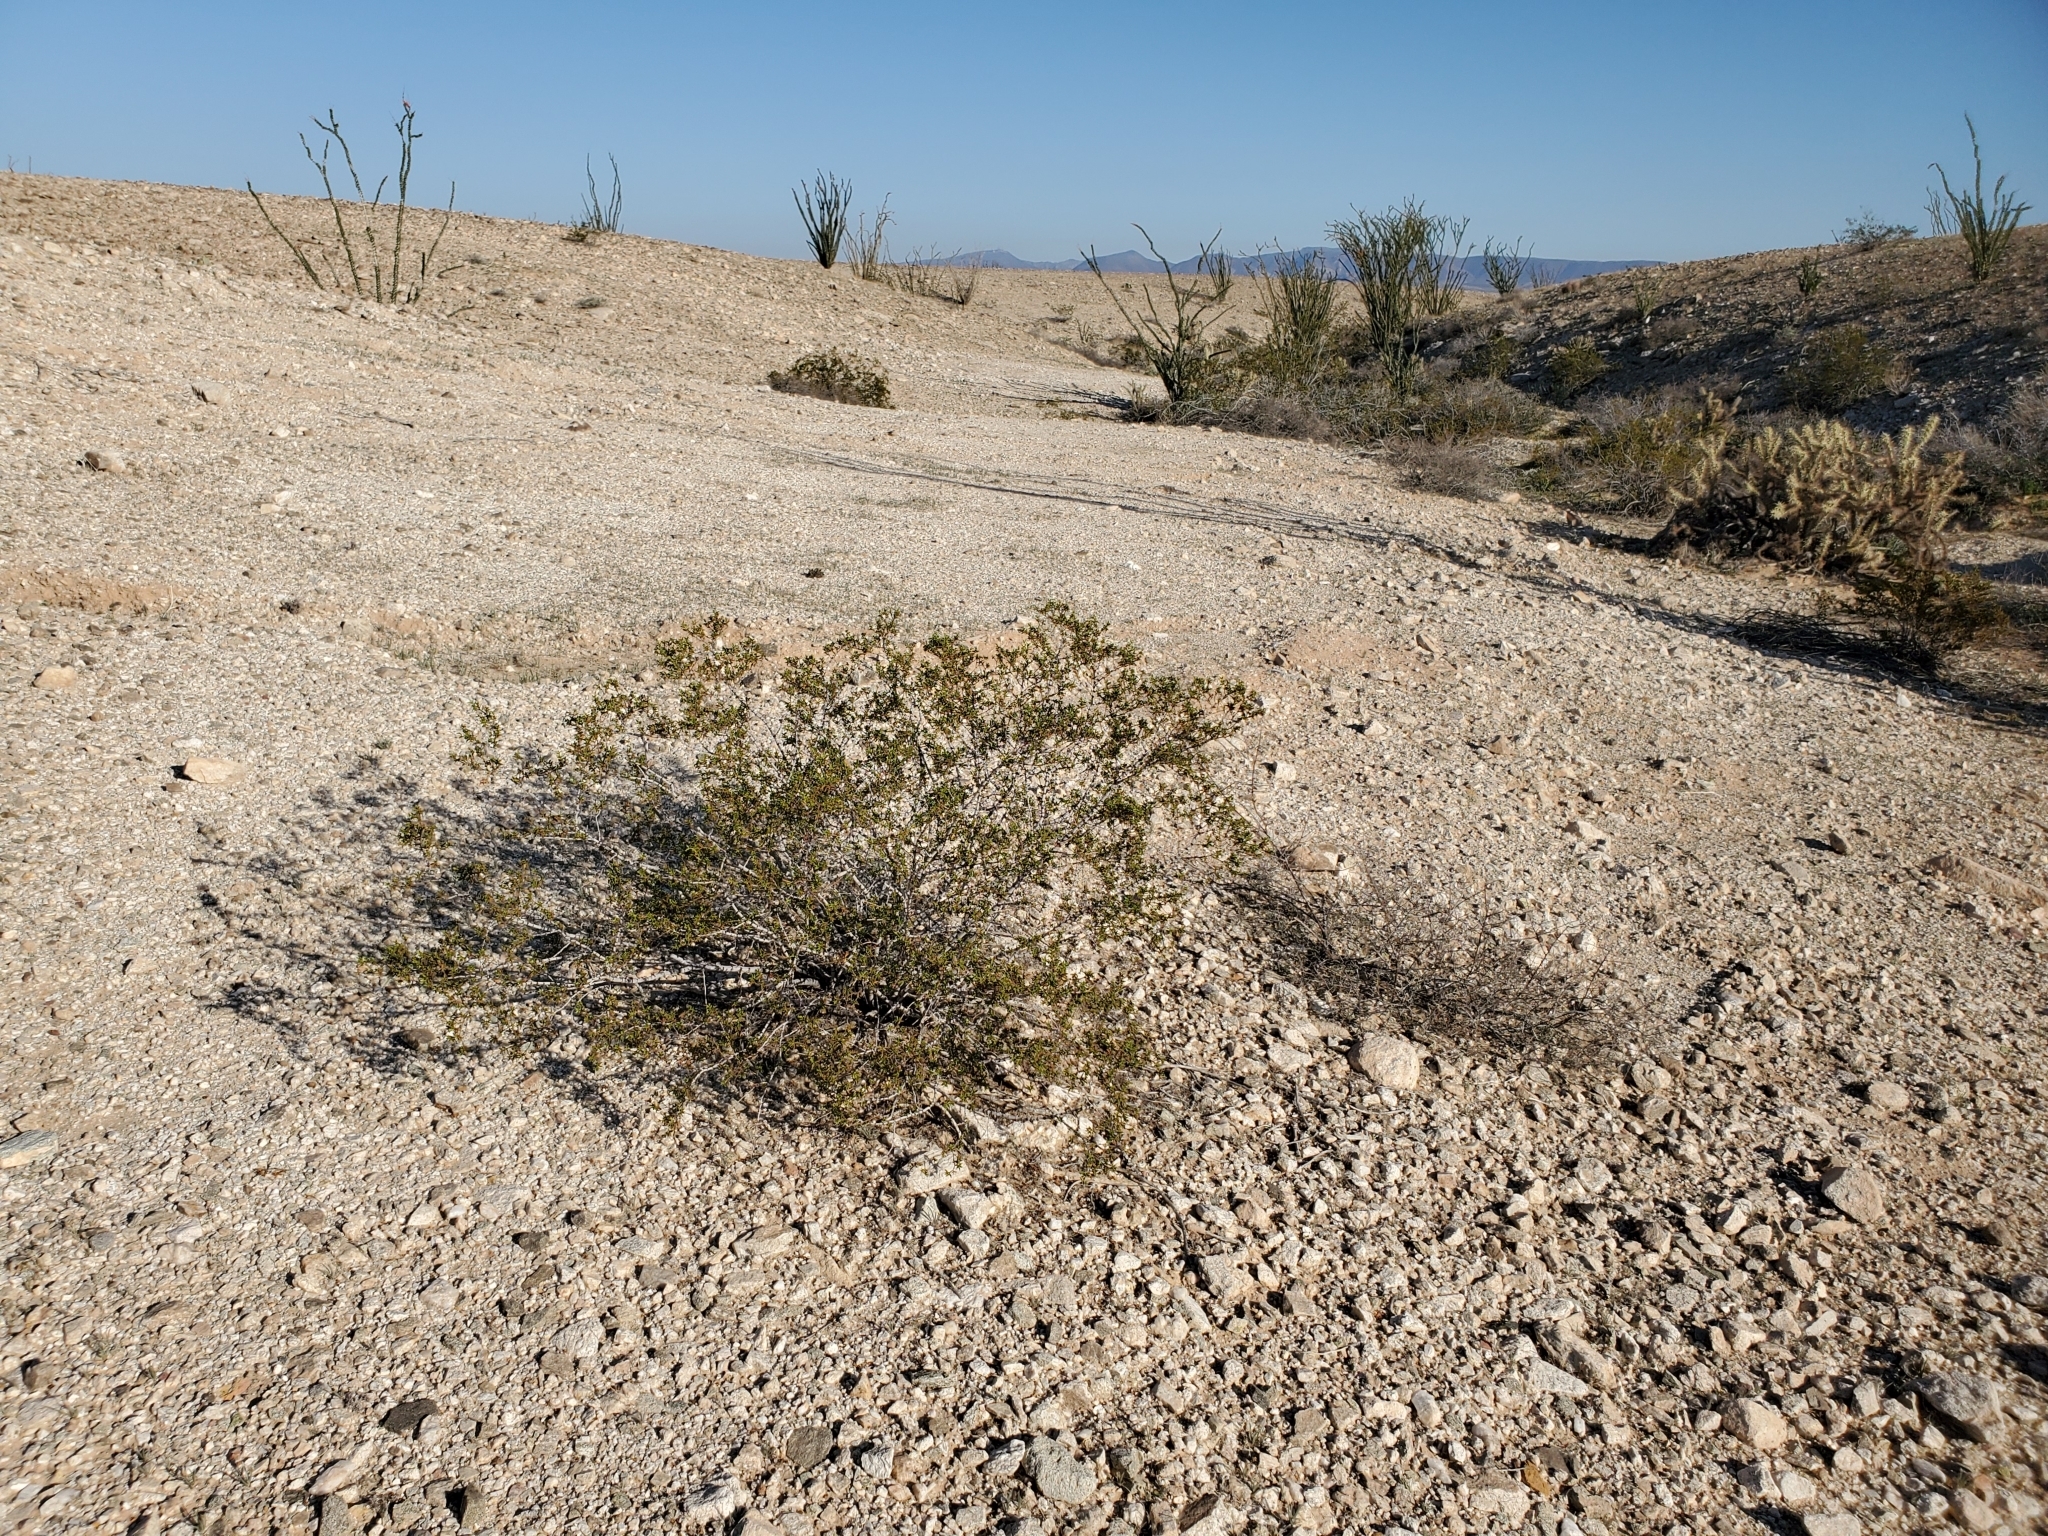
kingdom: Plantae
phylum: Tracheophyta
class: Magnoliopsida
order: Zygophyllales
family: Zygophyllaceae
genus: Larrea
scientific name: Larrea tridentata
